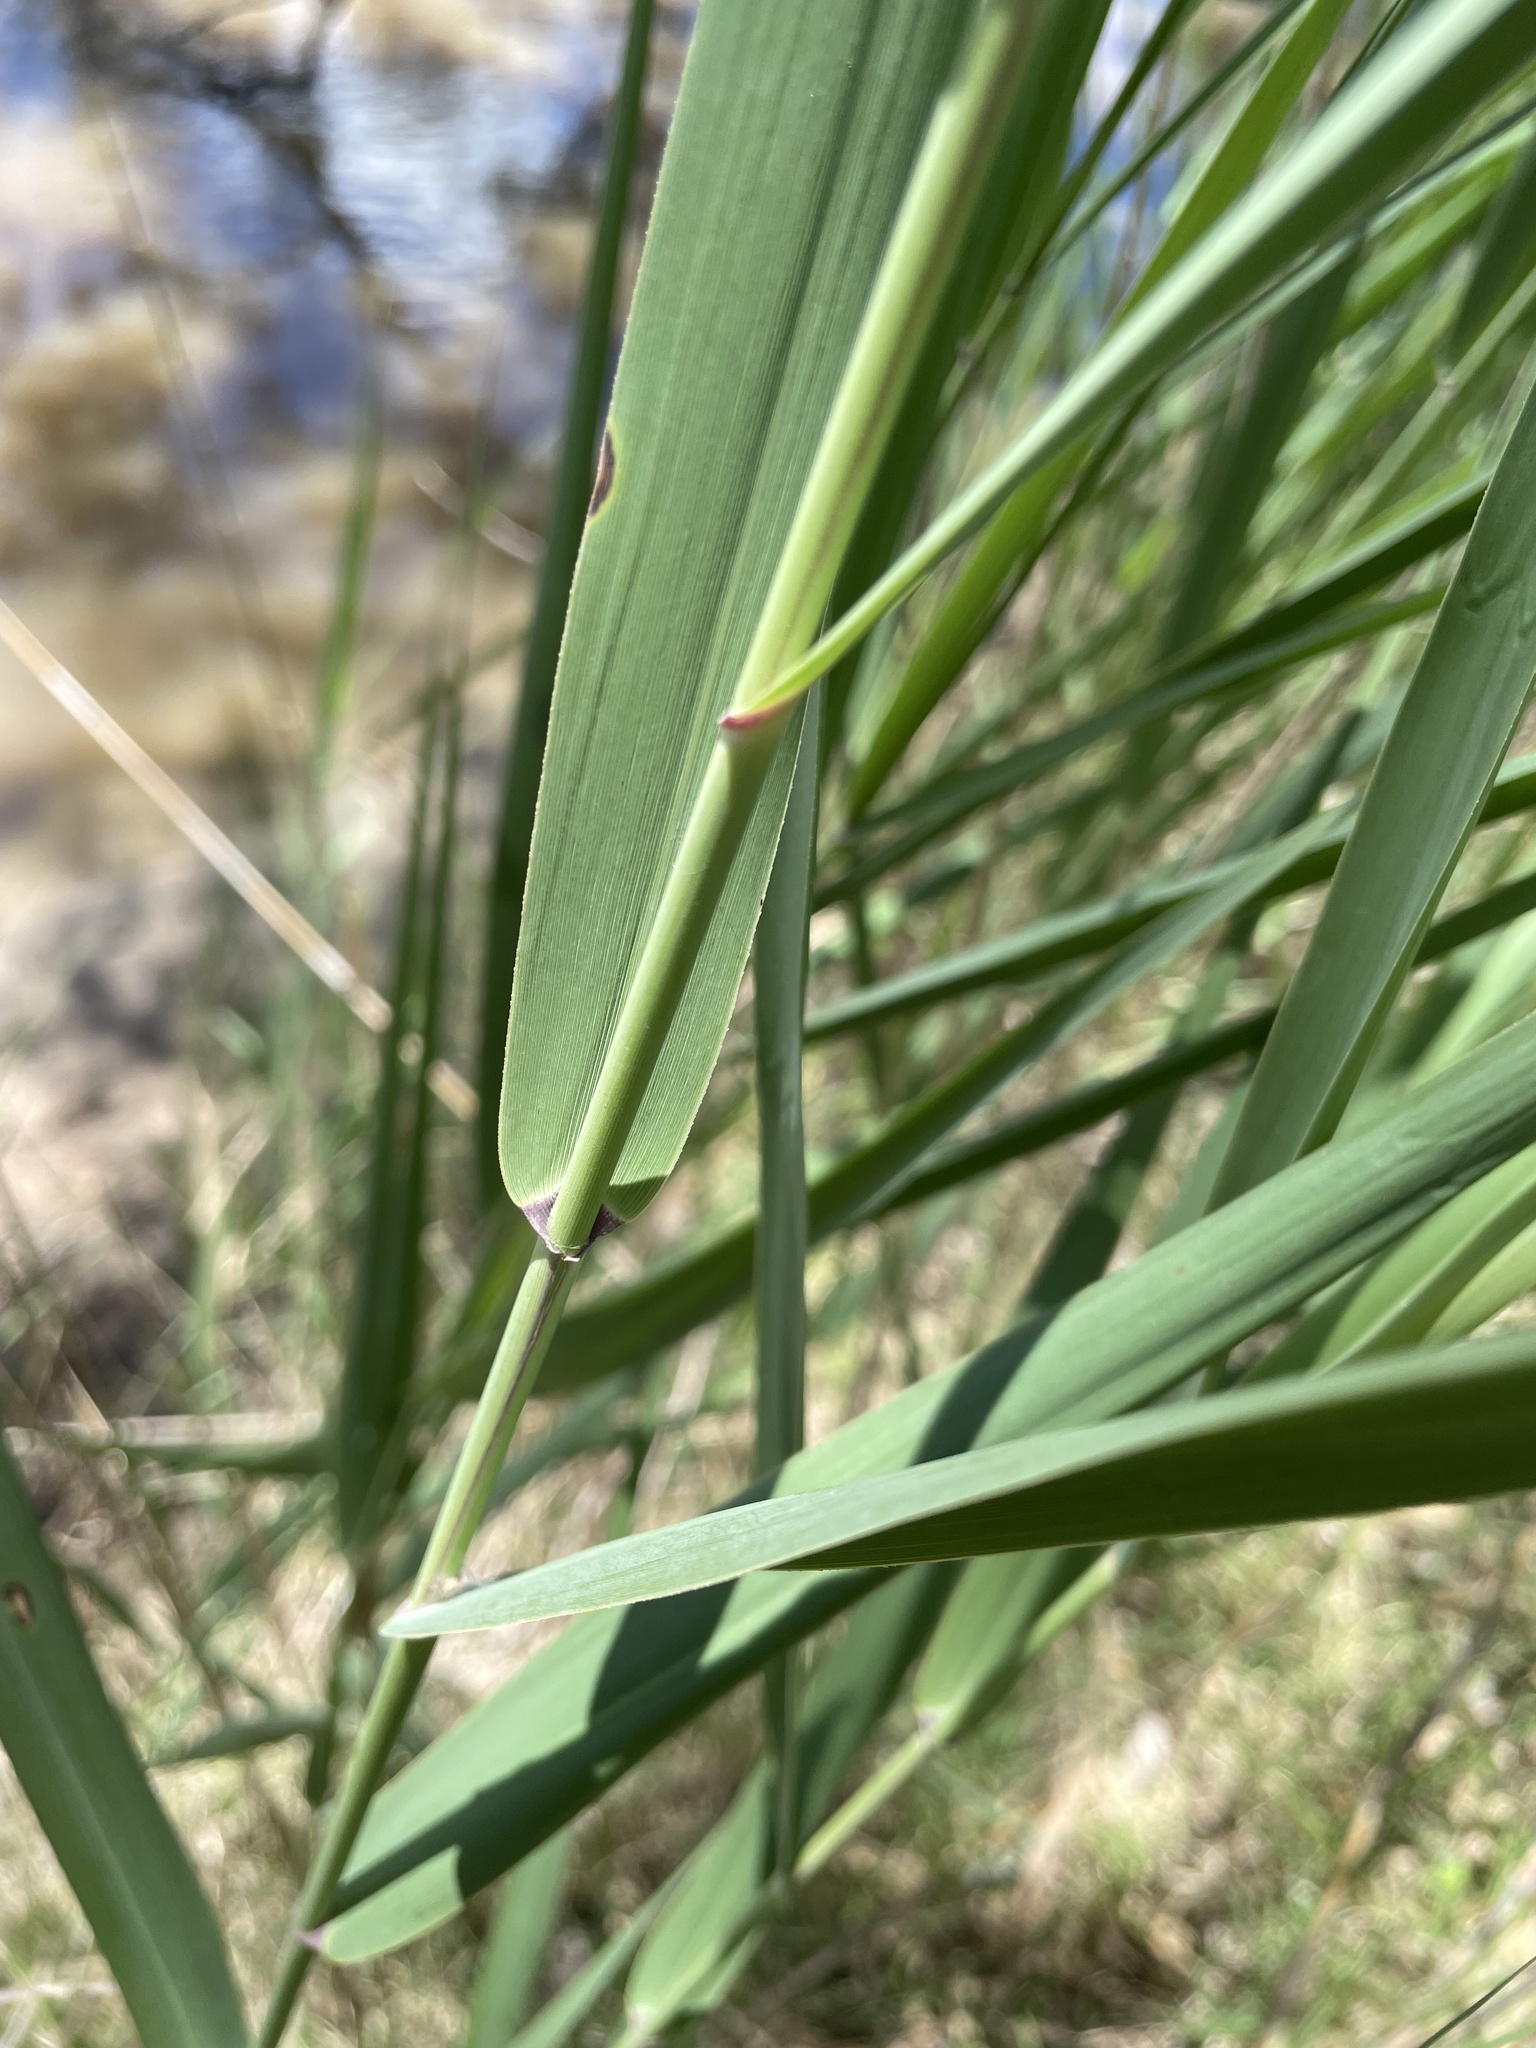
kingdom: Plantae
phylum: Tracheophyta
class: Liliopsida
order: Poales
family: Poaceae
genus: Phragmites
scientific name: Phragmites australis
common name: Common reed
